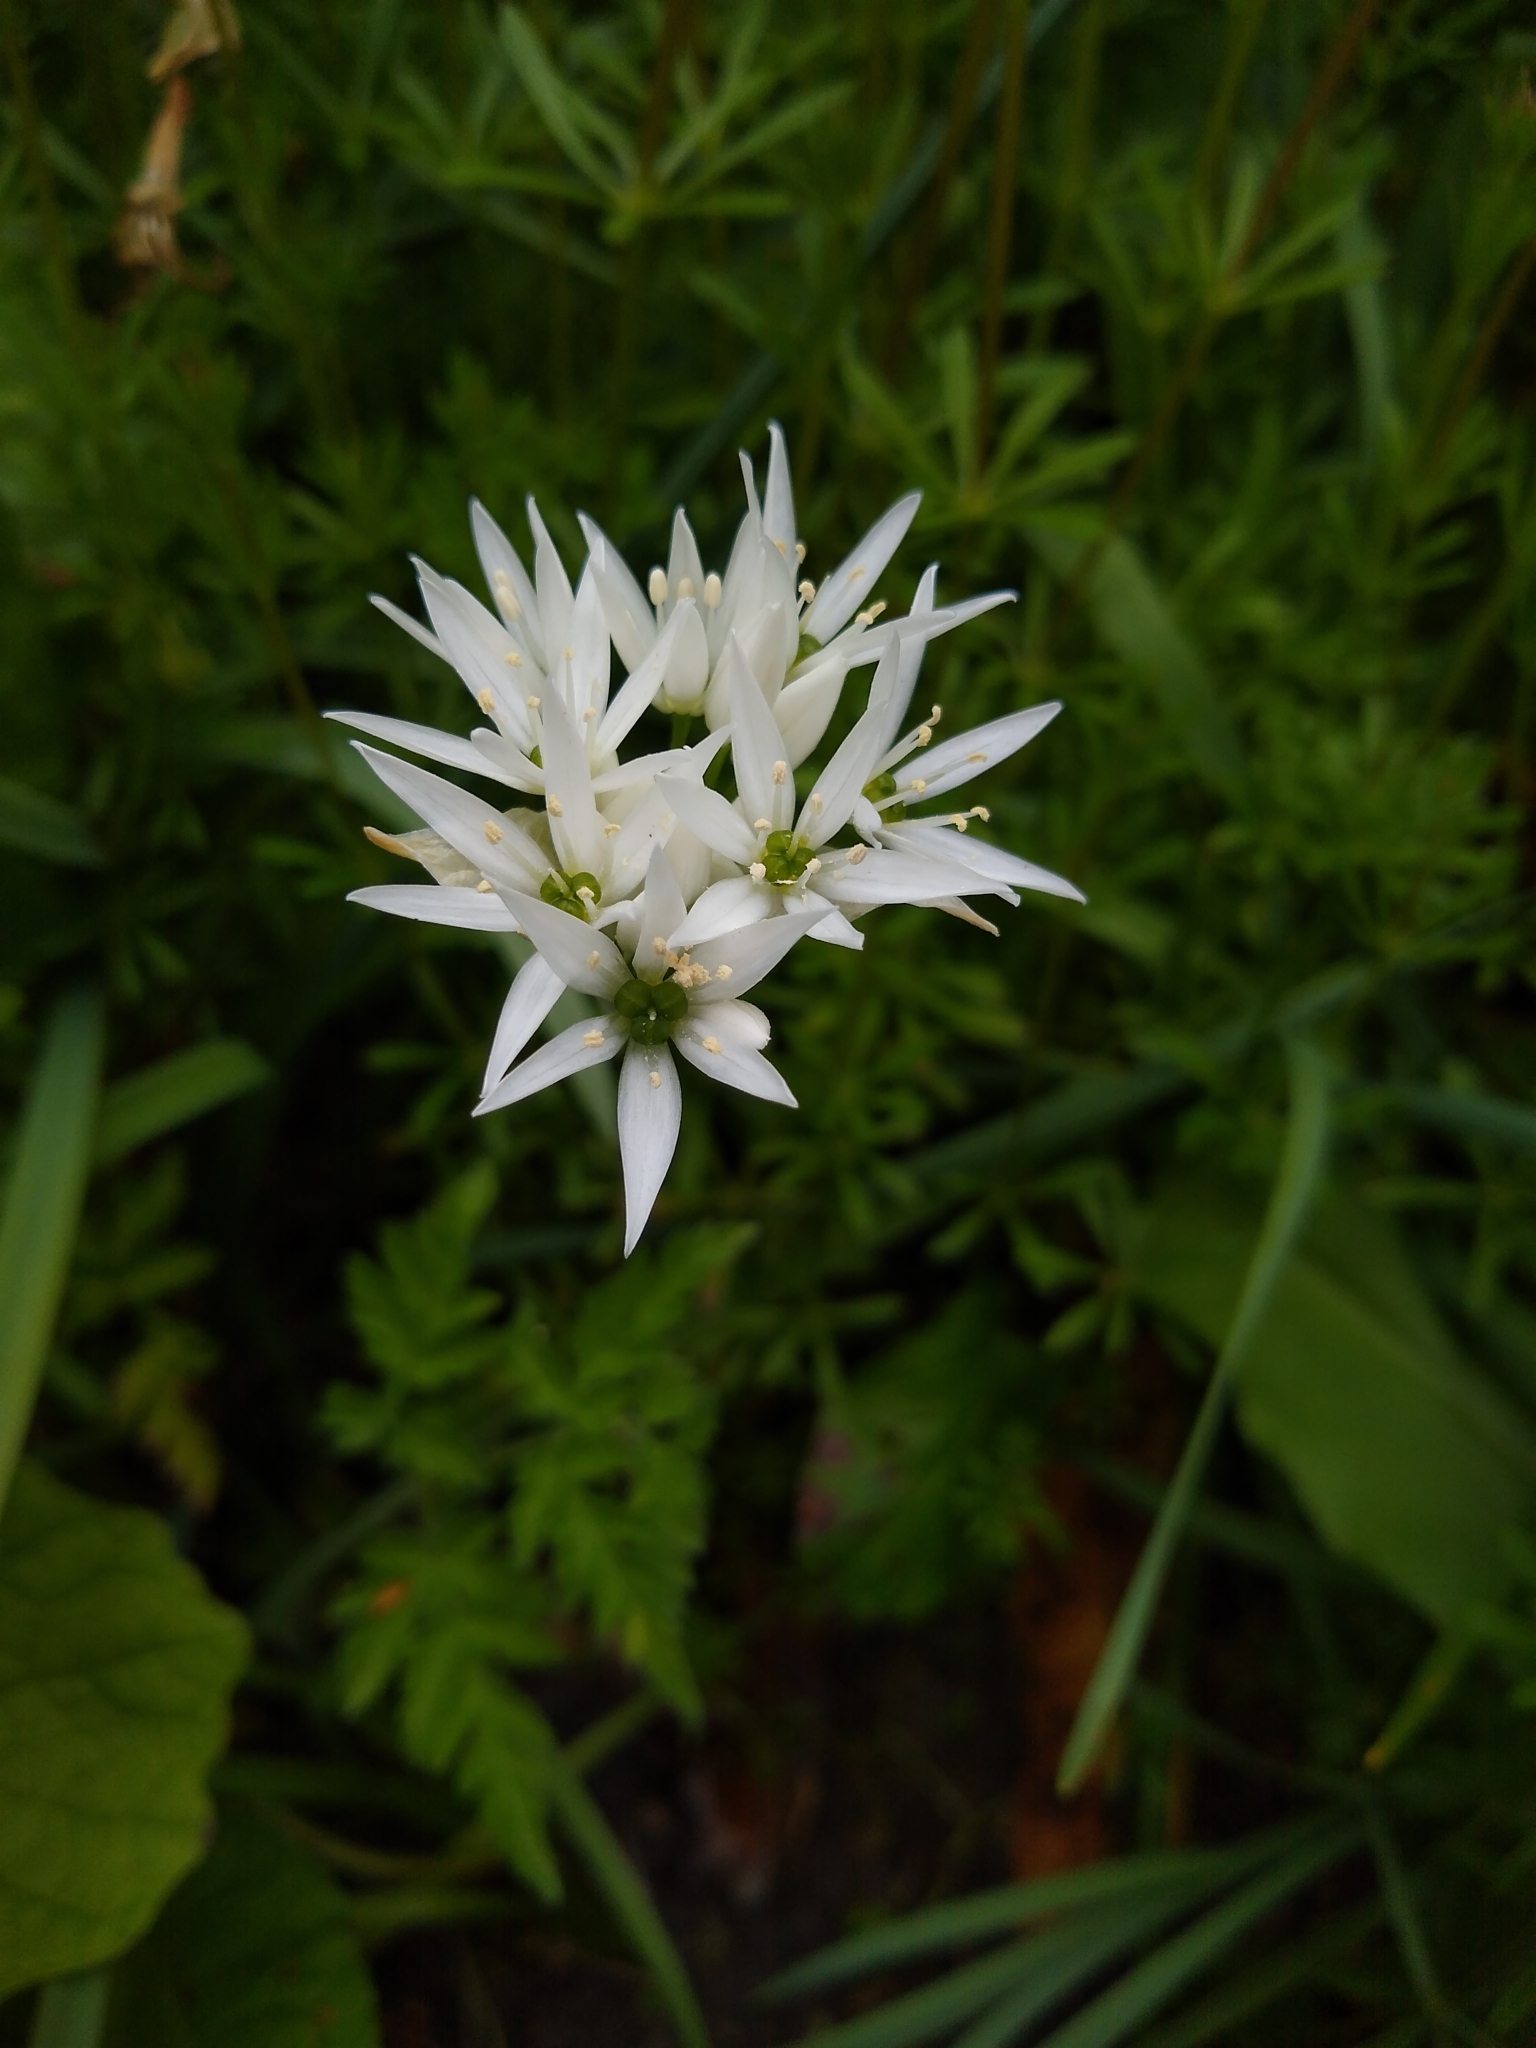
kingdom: Plantae
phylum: Tracheophyta
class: Liliopsida
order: Asparagales
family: Amaryllidaceae
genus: Allium
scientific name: Allium ursinum
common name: Ramsons
